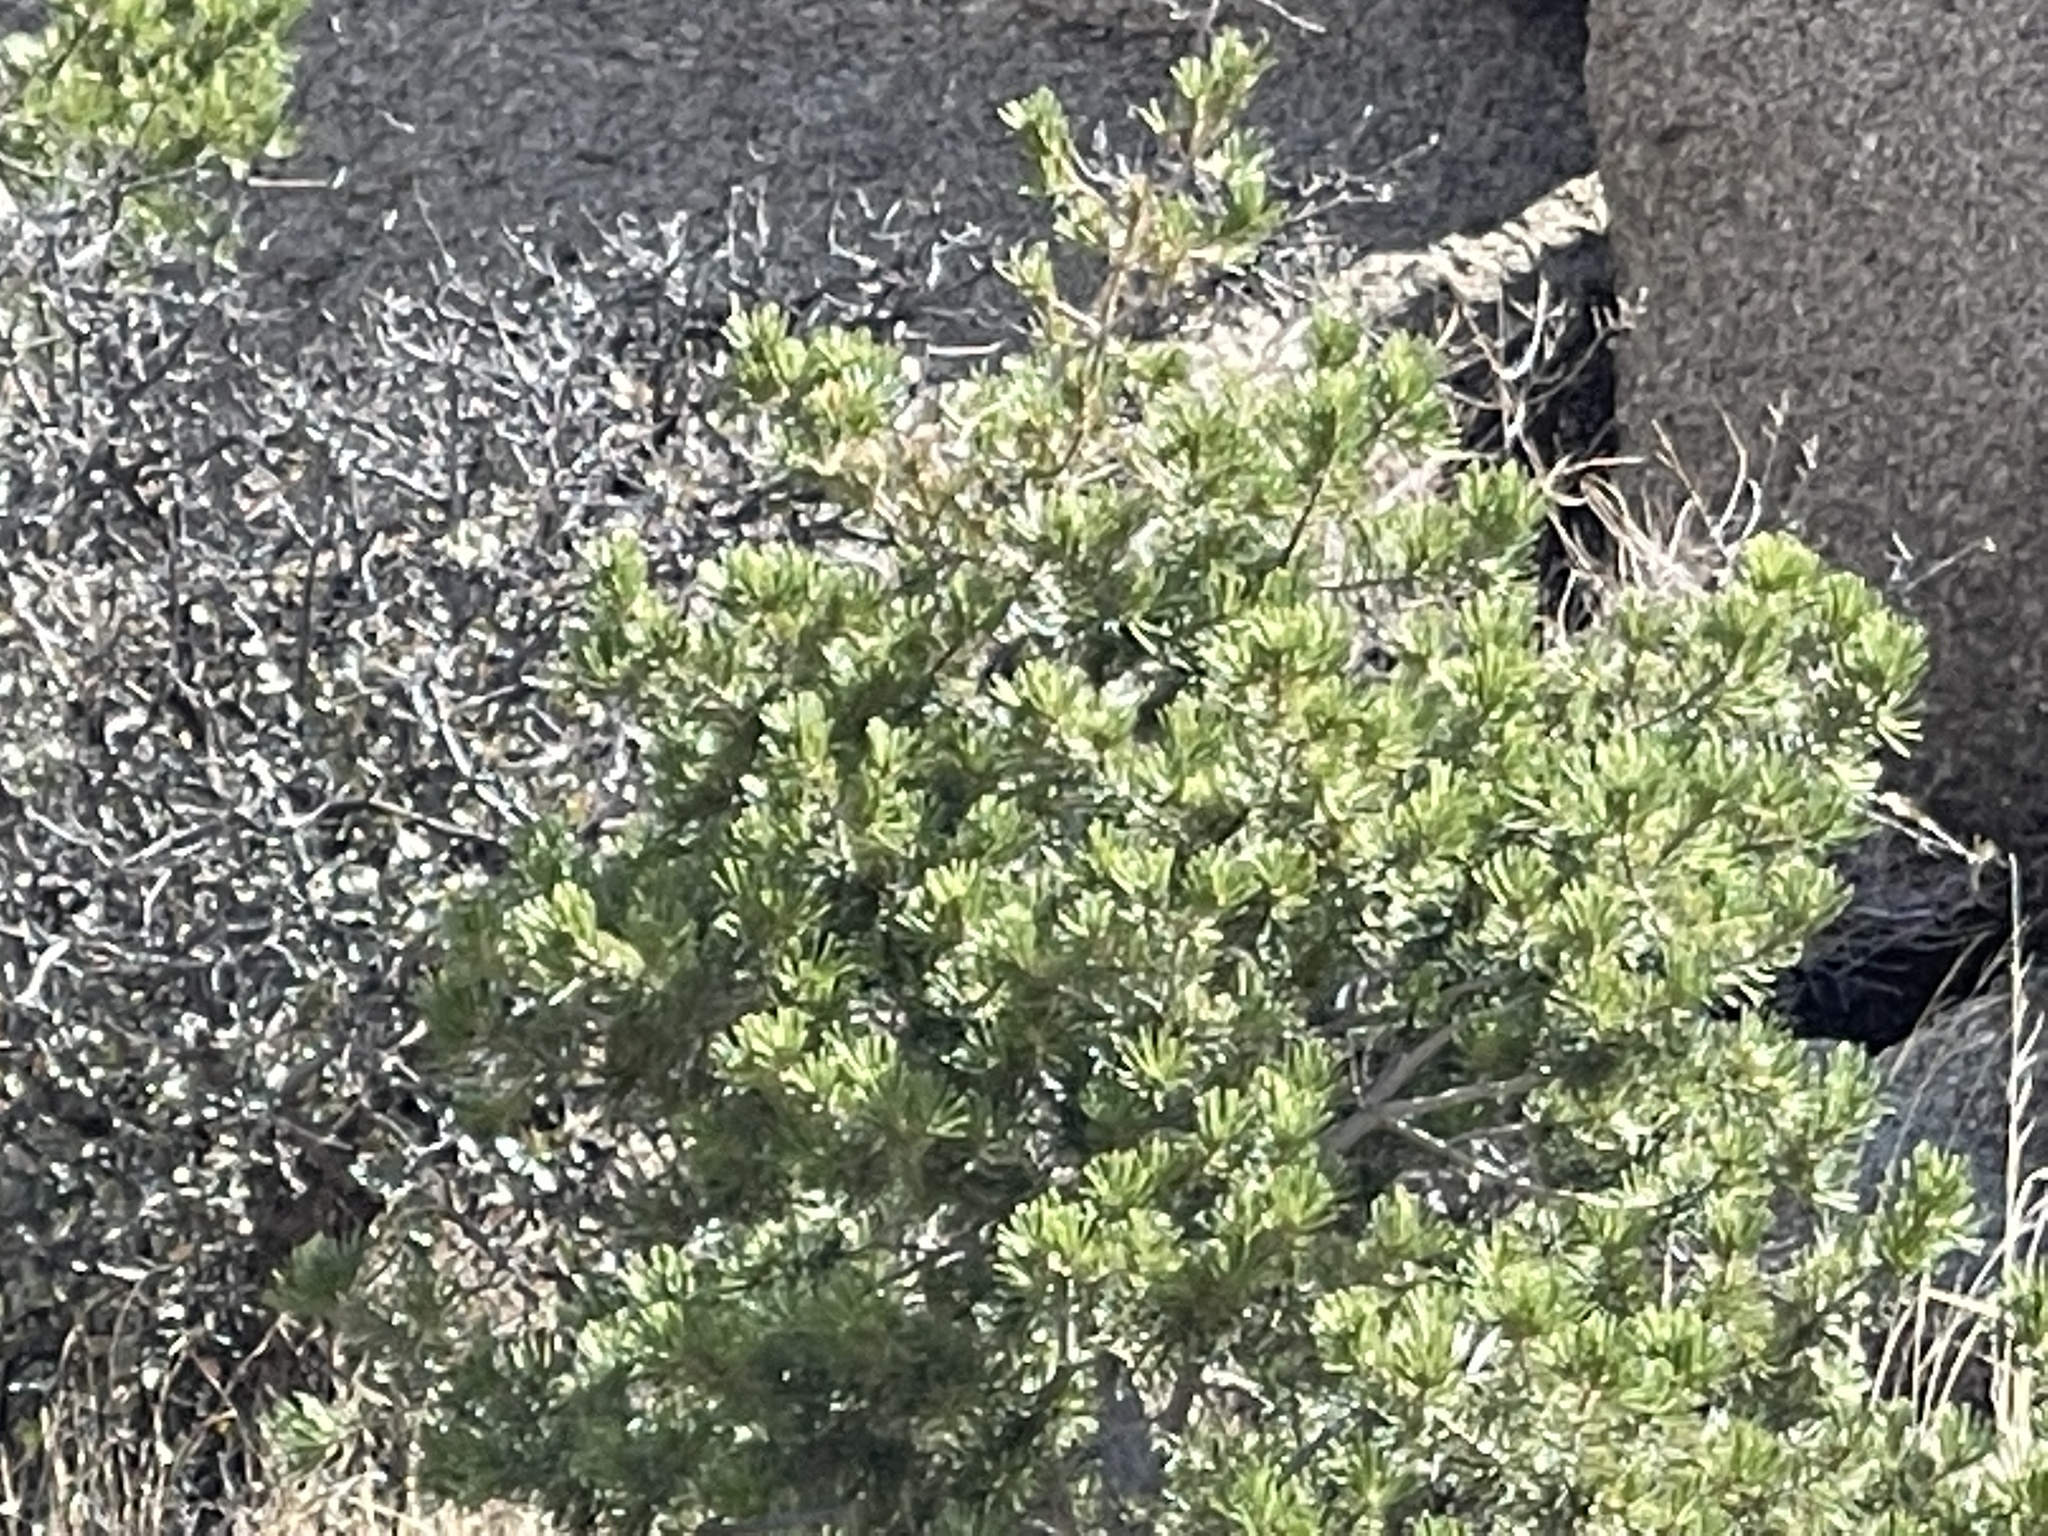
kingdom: Plantae
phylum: Tracheophyta
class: Pinopsida
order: Pinales
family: Pinaceae
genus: Pinus
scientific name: Pinus edulis
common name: Colorado pinyon
